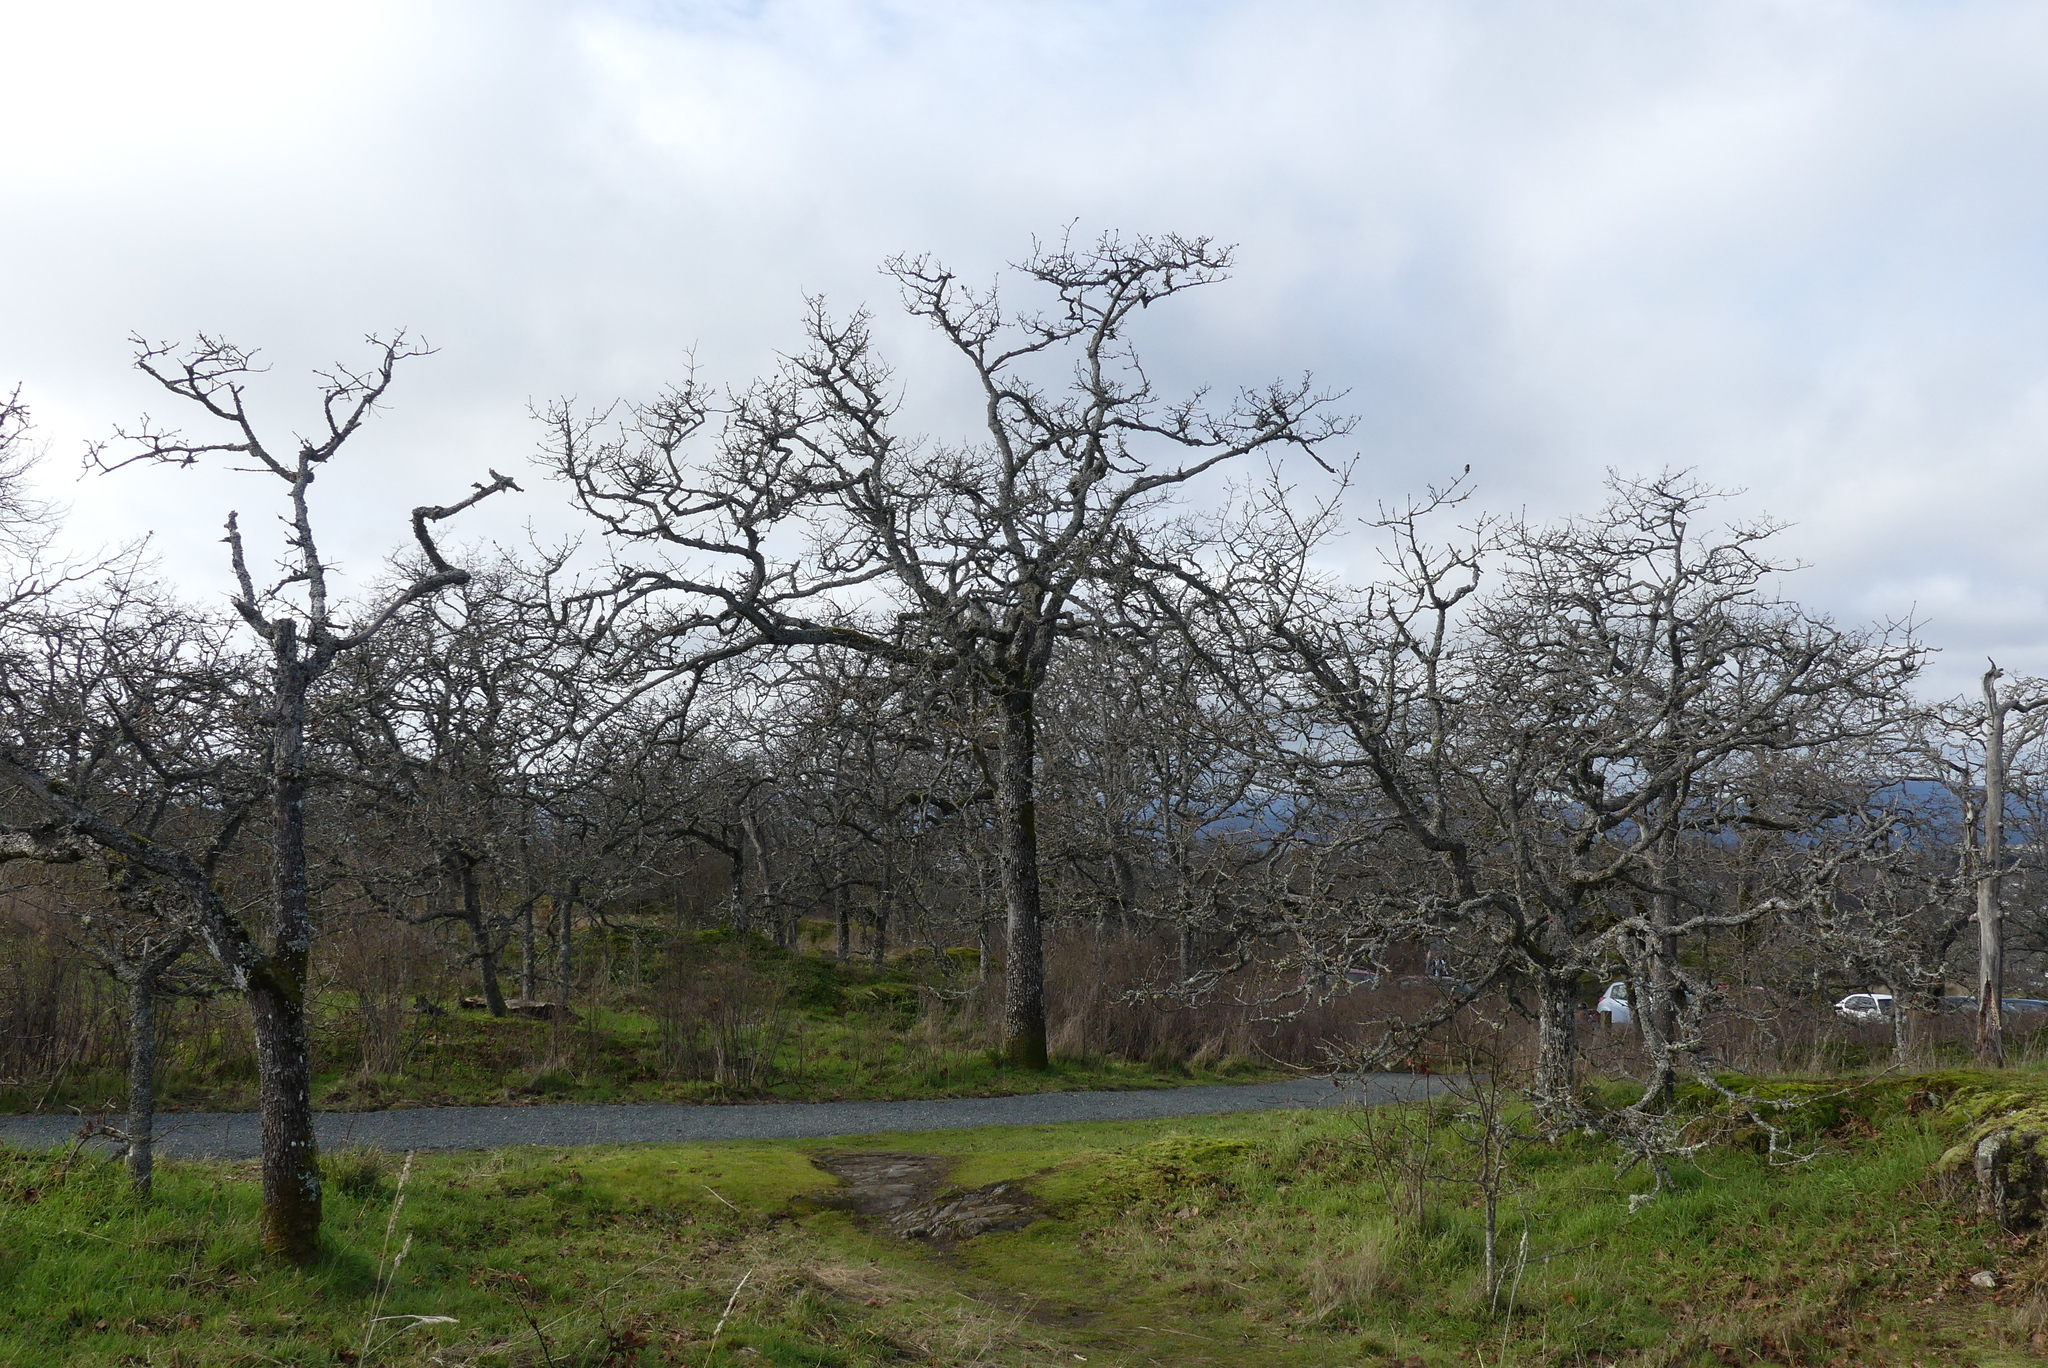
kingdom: Plantae
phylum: Tracheophyta
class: Magnoliopsida
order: Fagales
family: Fagaceae
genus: Quercus
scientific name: Quercus garryana
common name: Garry oak
